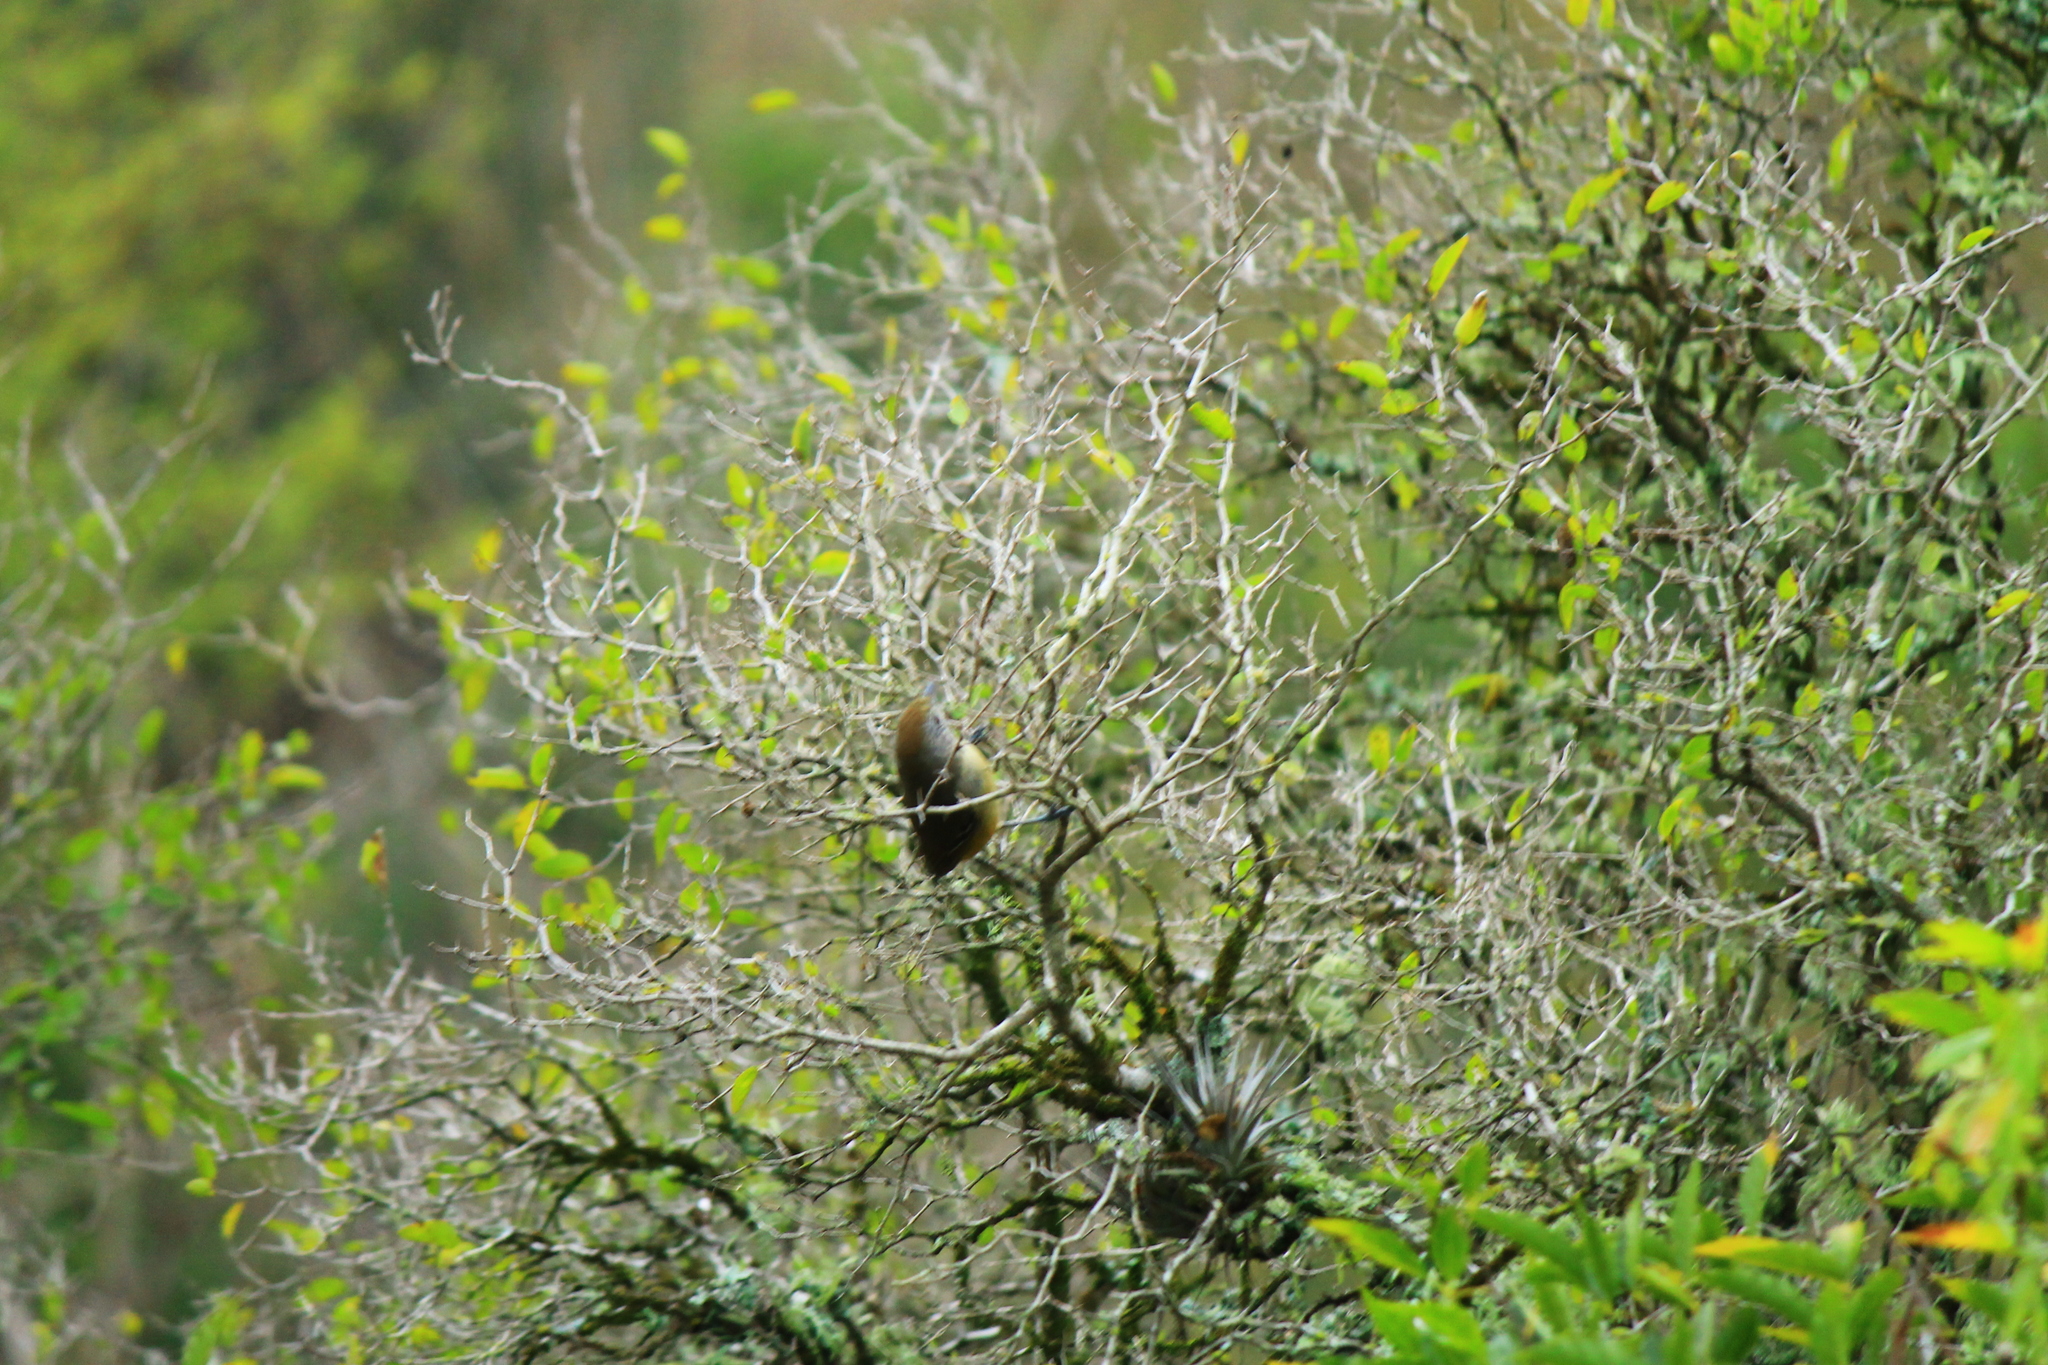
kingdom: Animalia
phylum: Chordata
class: Aves
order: Passeriformes
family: Thamnophilidae
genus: Thamnophilus
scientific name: Thamnophilus caerulescens
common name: Variable antshrike
